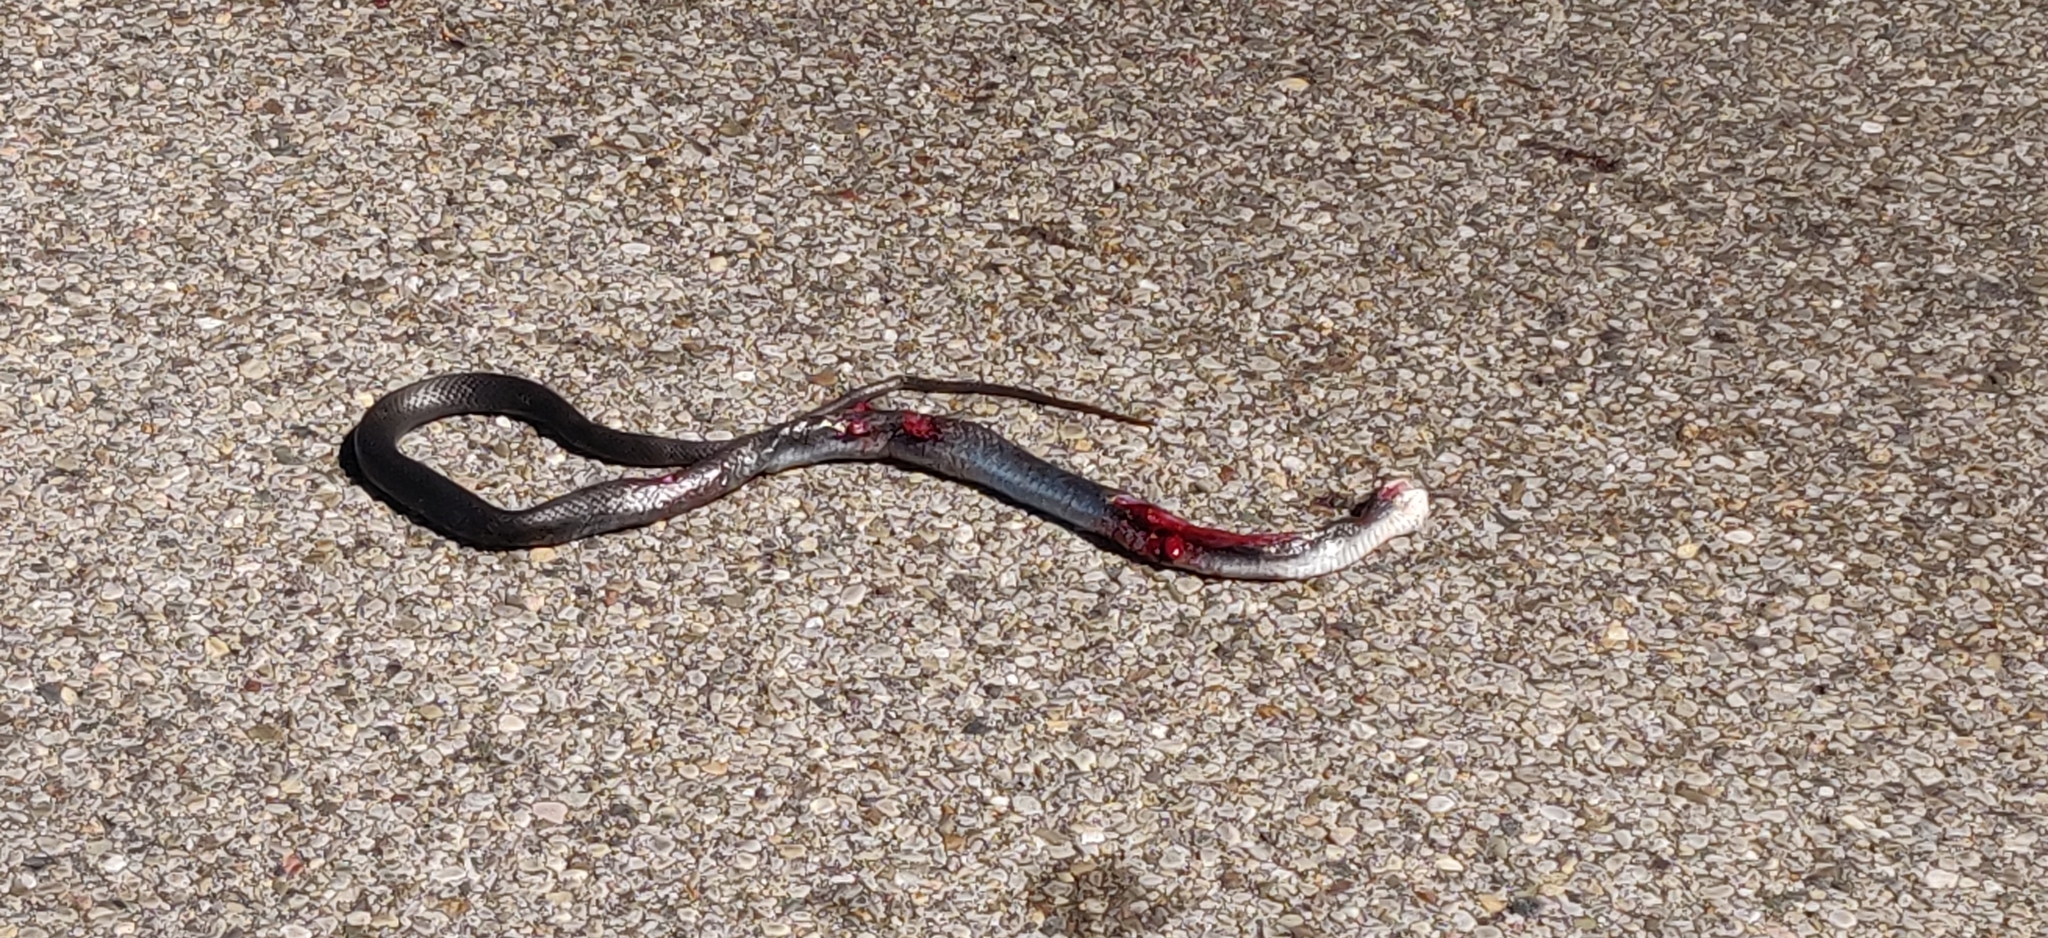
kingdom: Animalia
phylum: Chordata
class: Squamata
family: Colubridae
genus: Coluber
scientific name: Coluber constrictor
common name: Eastern racer
